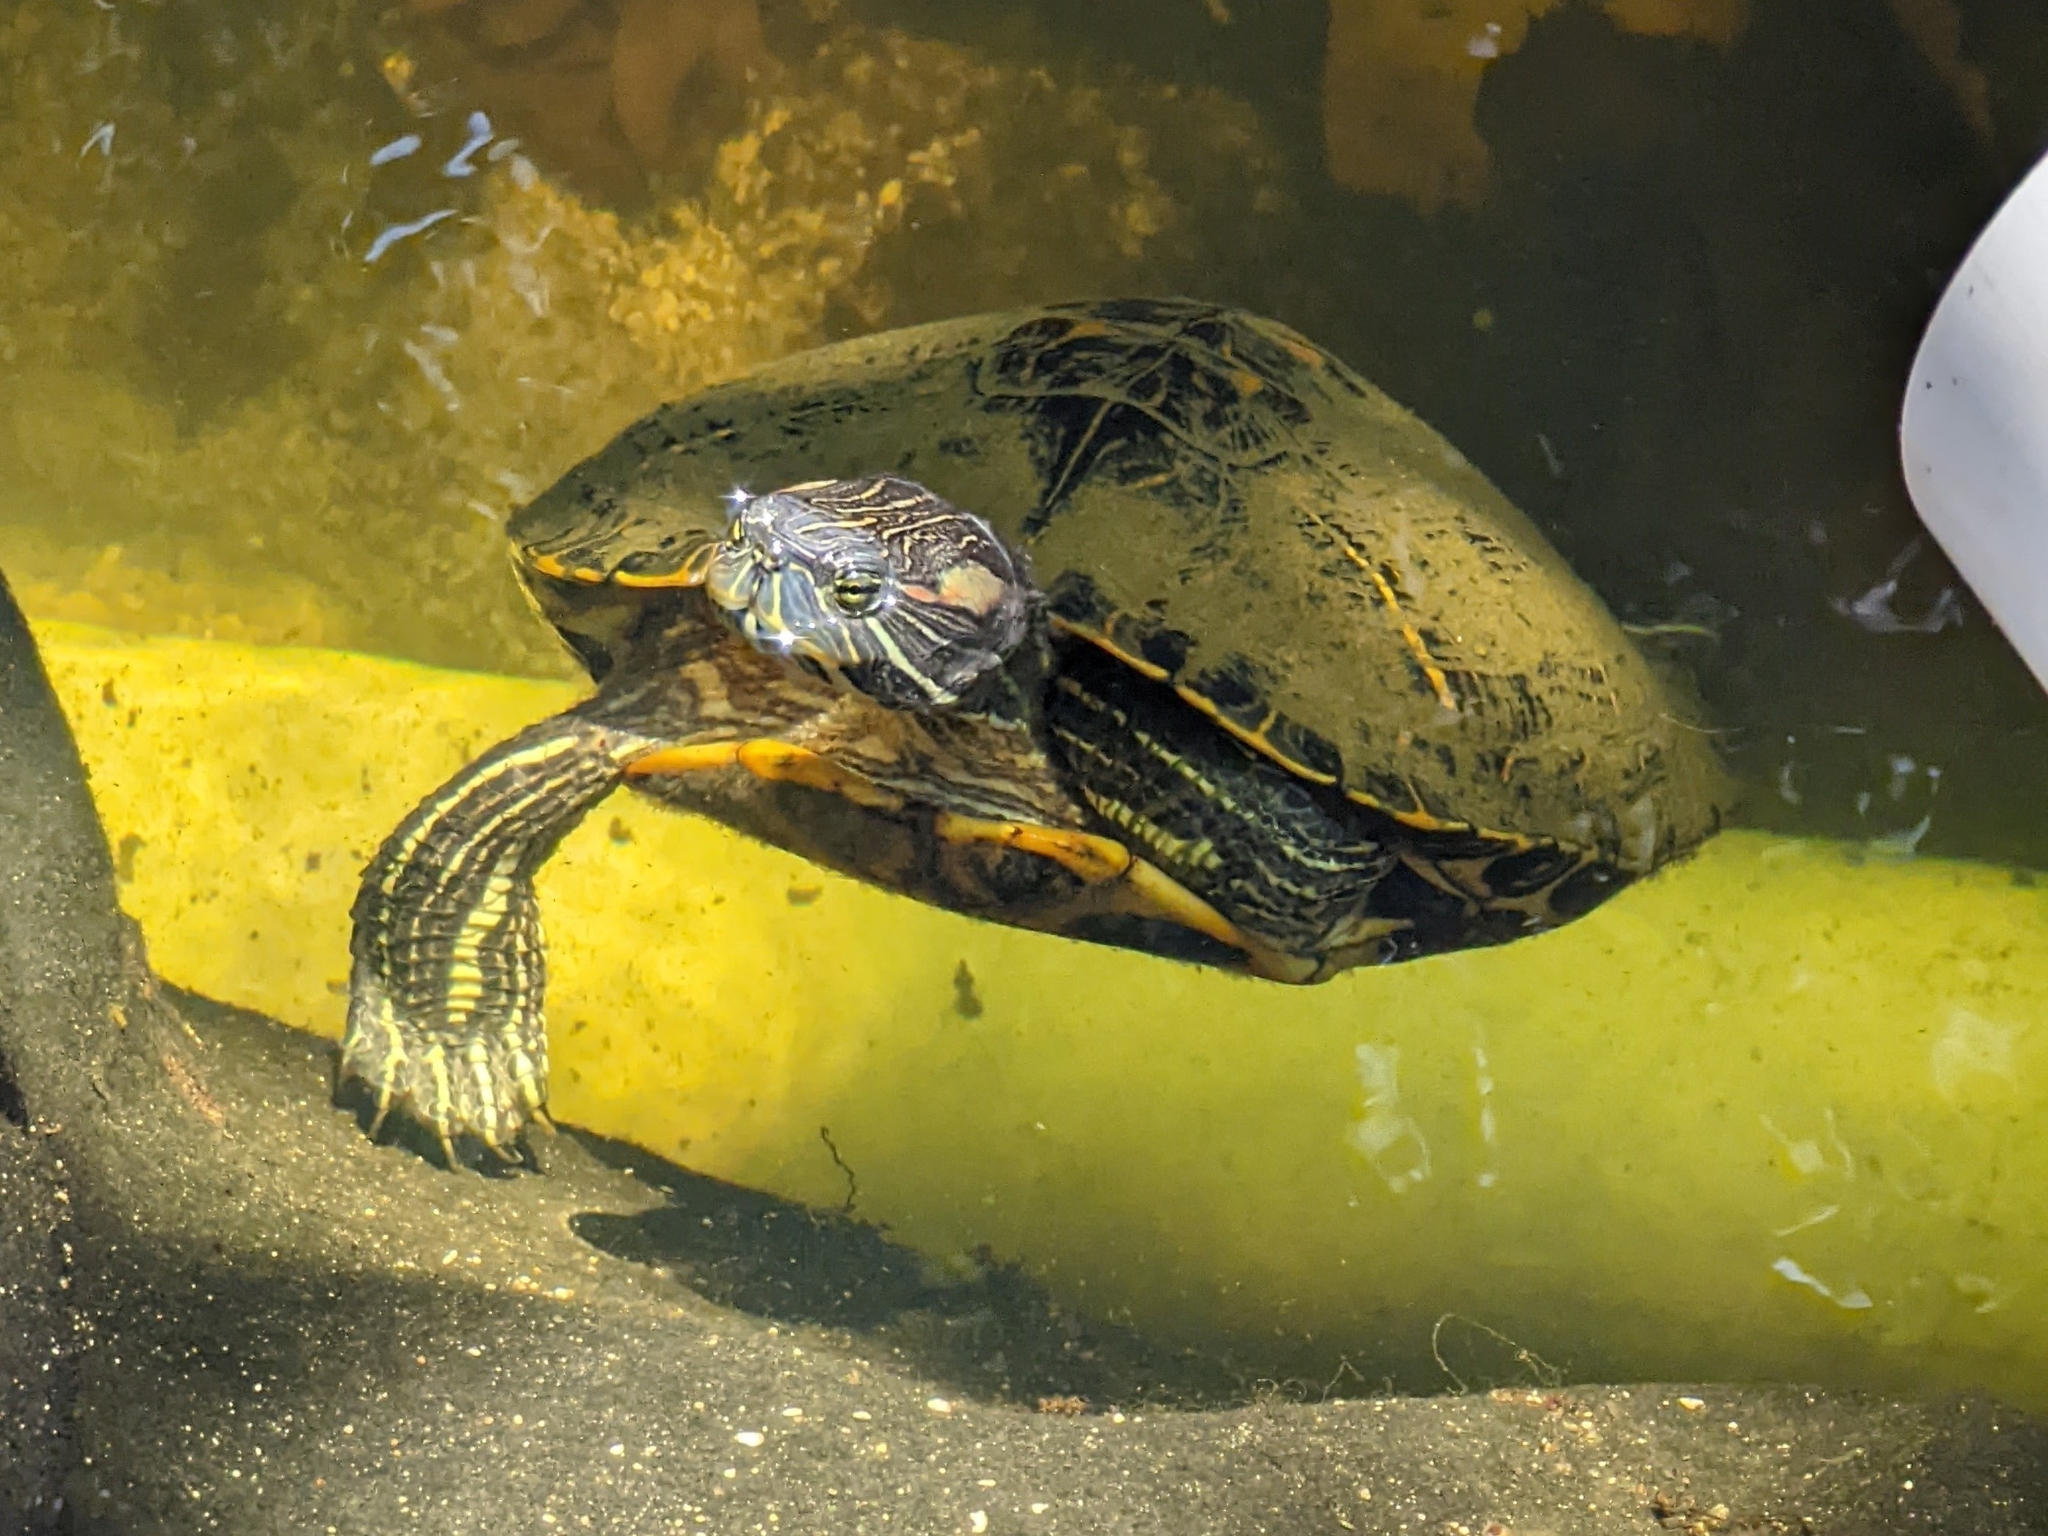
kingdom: Animalia
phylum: Chordata
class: Testudines
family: Emydidae
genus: Trachemys
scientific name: Trachemys scripta
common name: Slider
